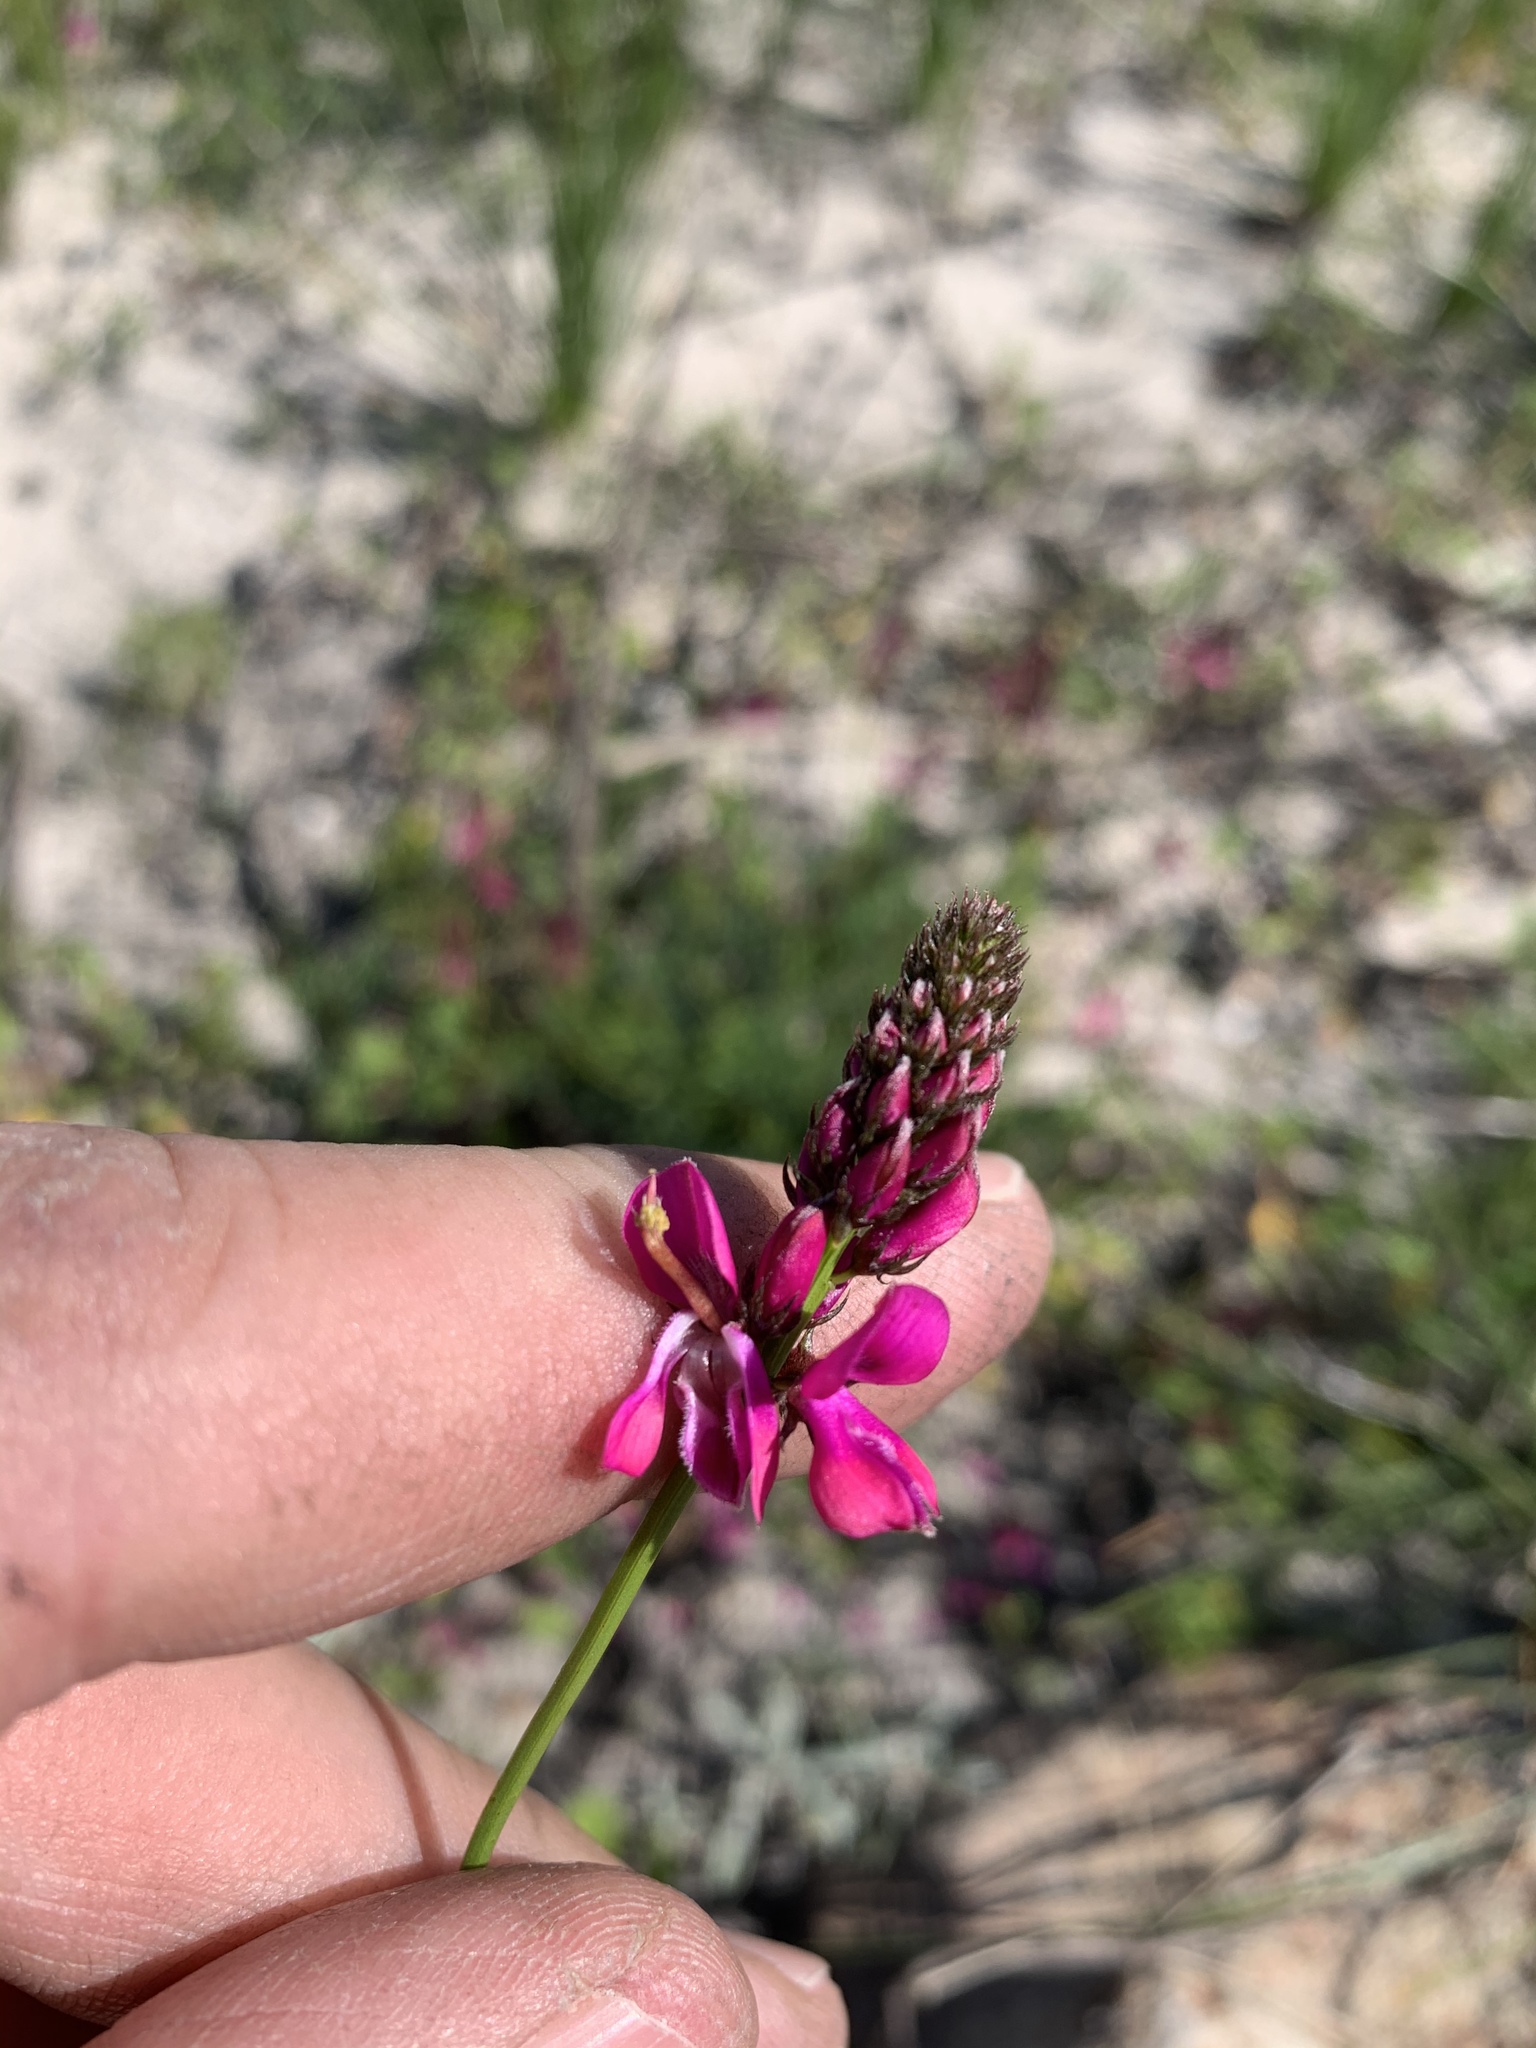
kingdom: Plantae
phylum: Tracheophyta
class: Magnoliopsida
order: Fabales
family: Fabaceae
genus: Indigofera
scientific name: Indigofera capillaris
